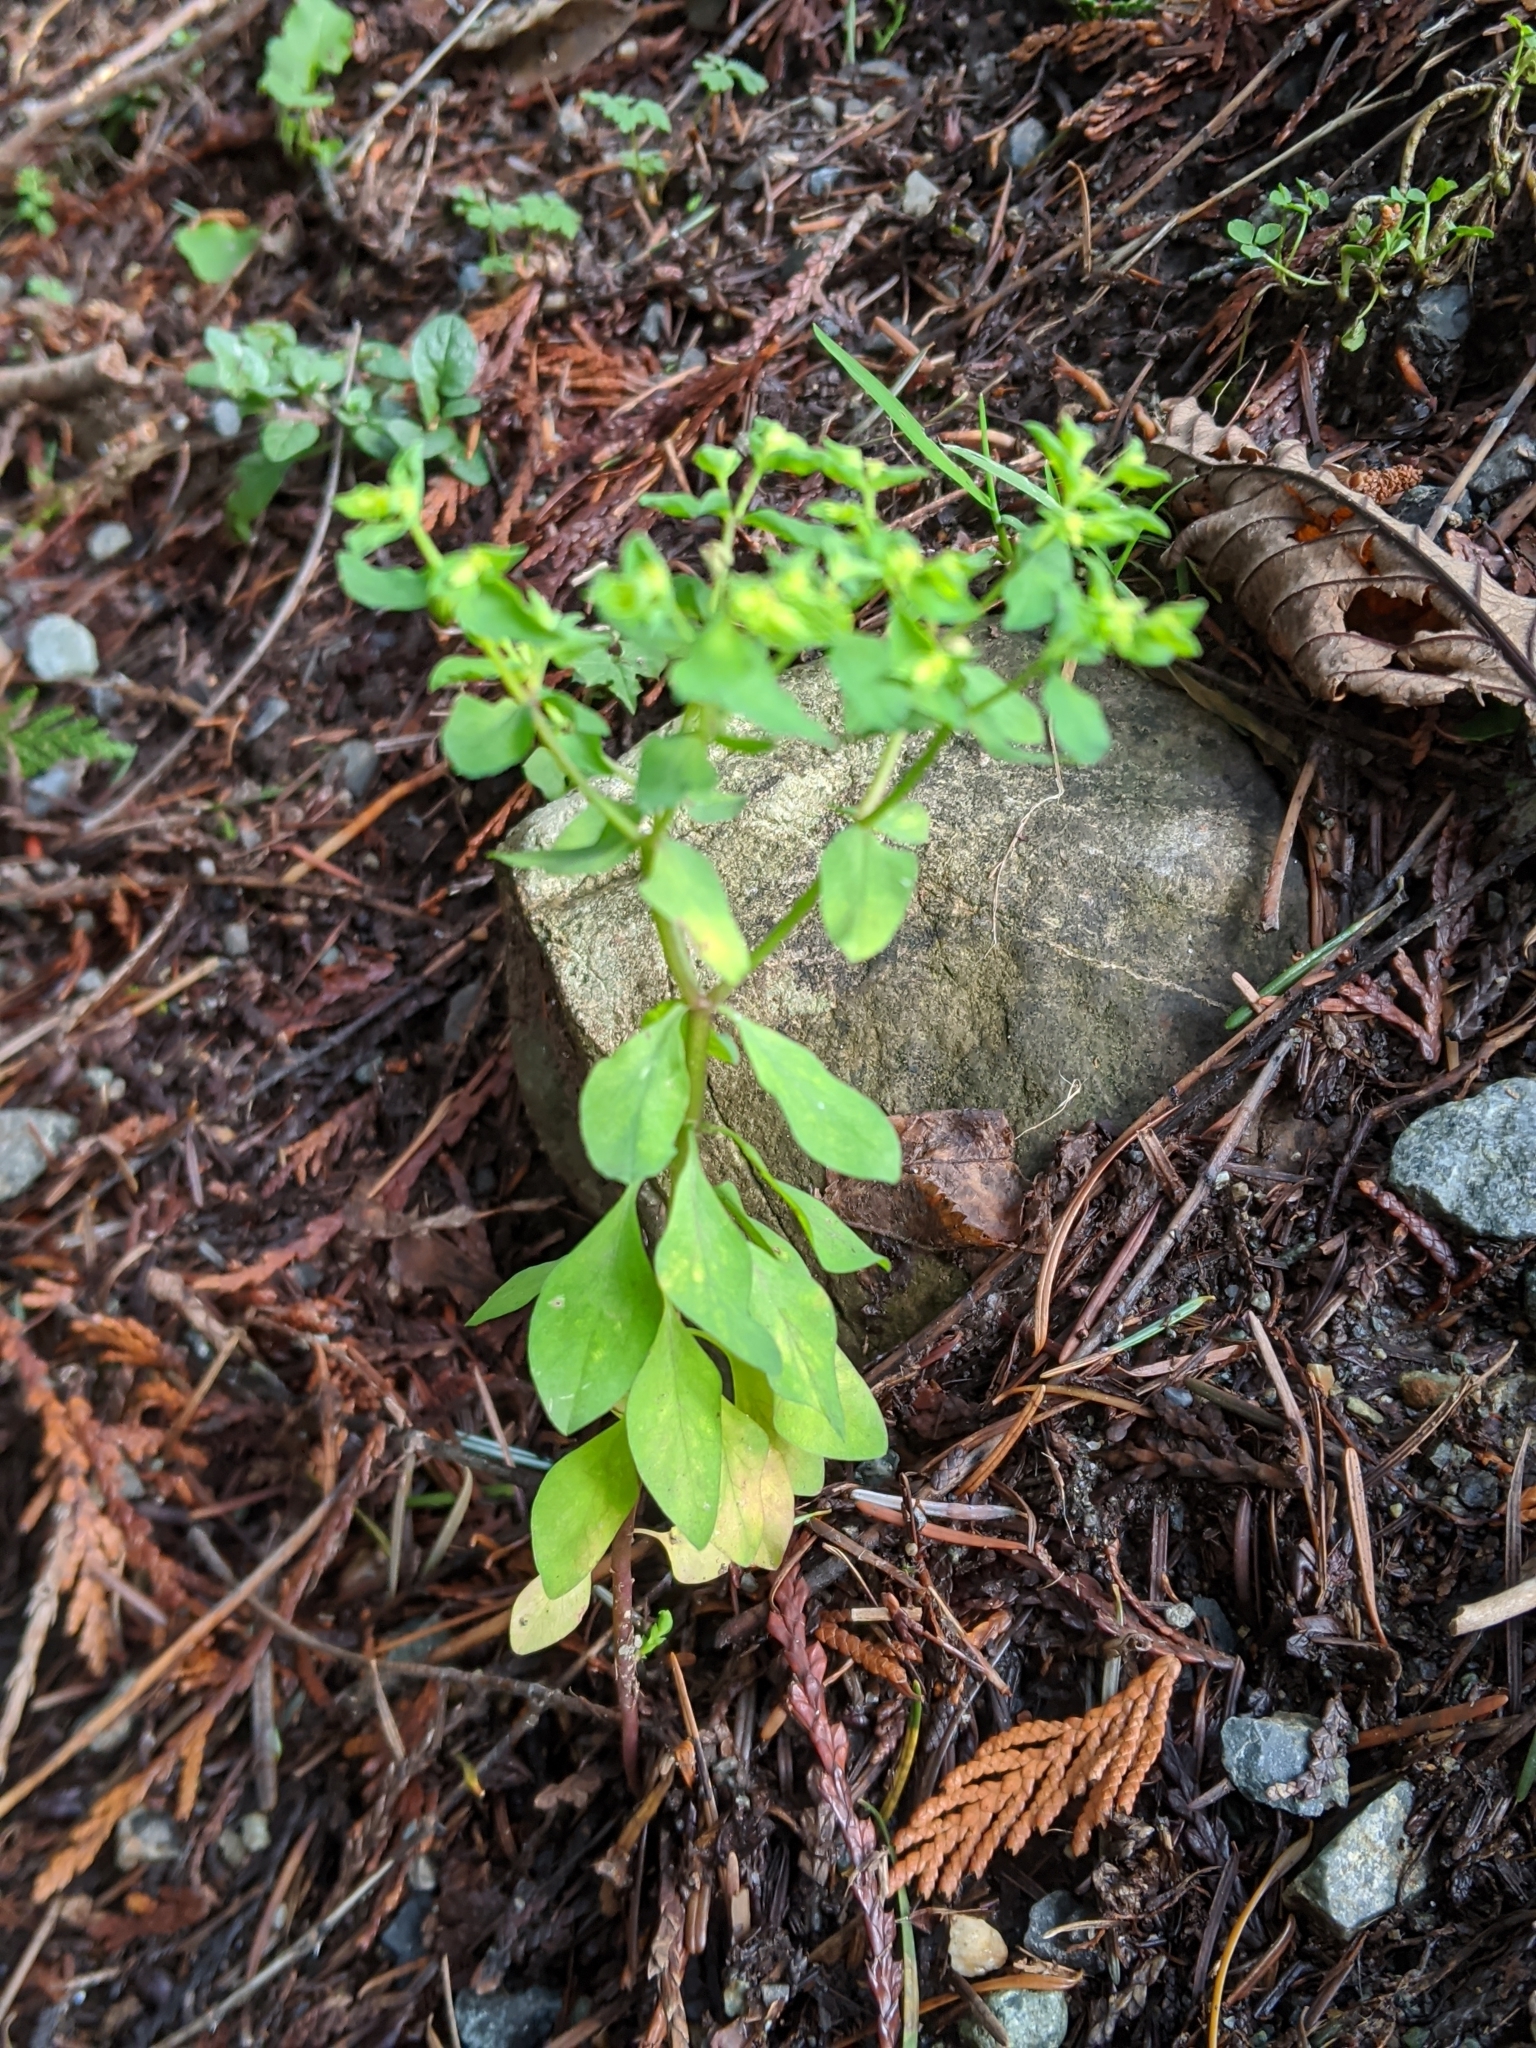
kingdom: Plantae
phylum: Tracheophyta
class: Magnoliopsida
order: Malpighiales
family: Euphorbiaceae
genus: Euphorbia
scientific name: Euphorbia peplus
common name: Petty spurge
